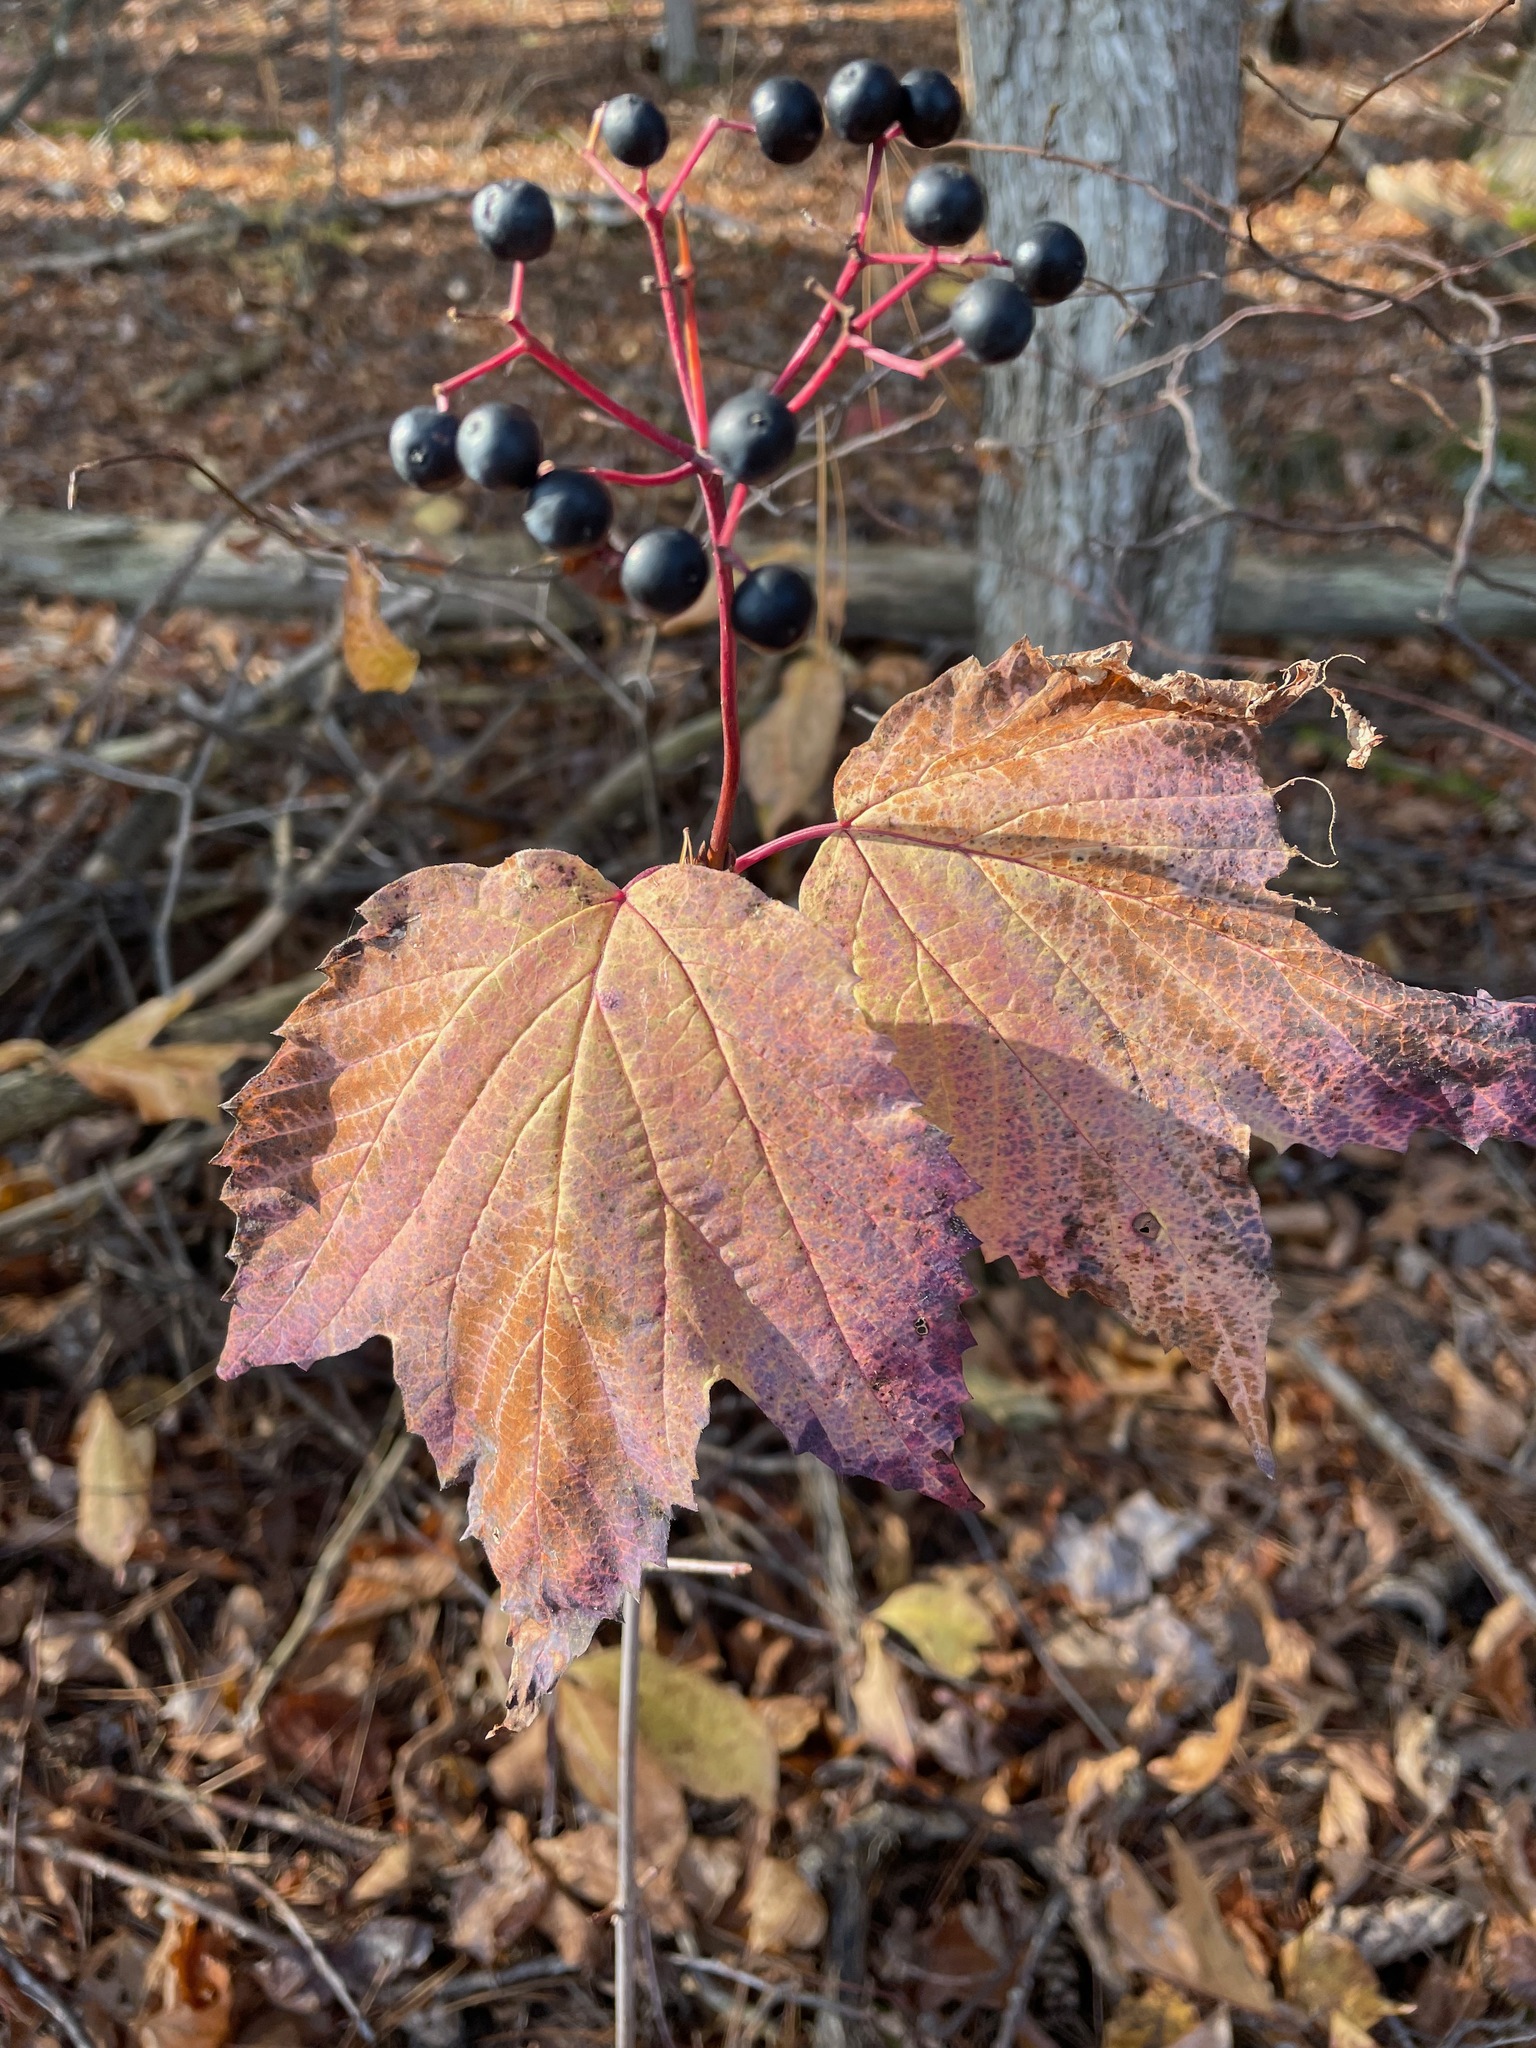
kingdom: Plantae
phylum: Tracheophyta
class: Magnoliopsida
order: Dipsacales
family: Viburnaceae
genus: Viburnum
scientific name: Viburnum acerifolium
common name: Dockmackie
